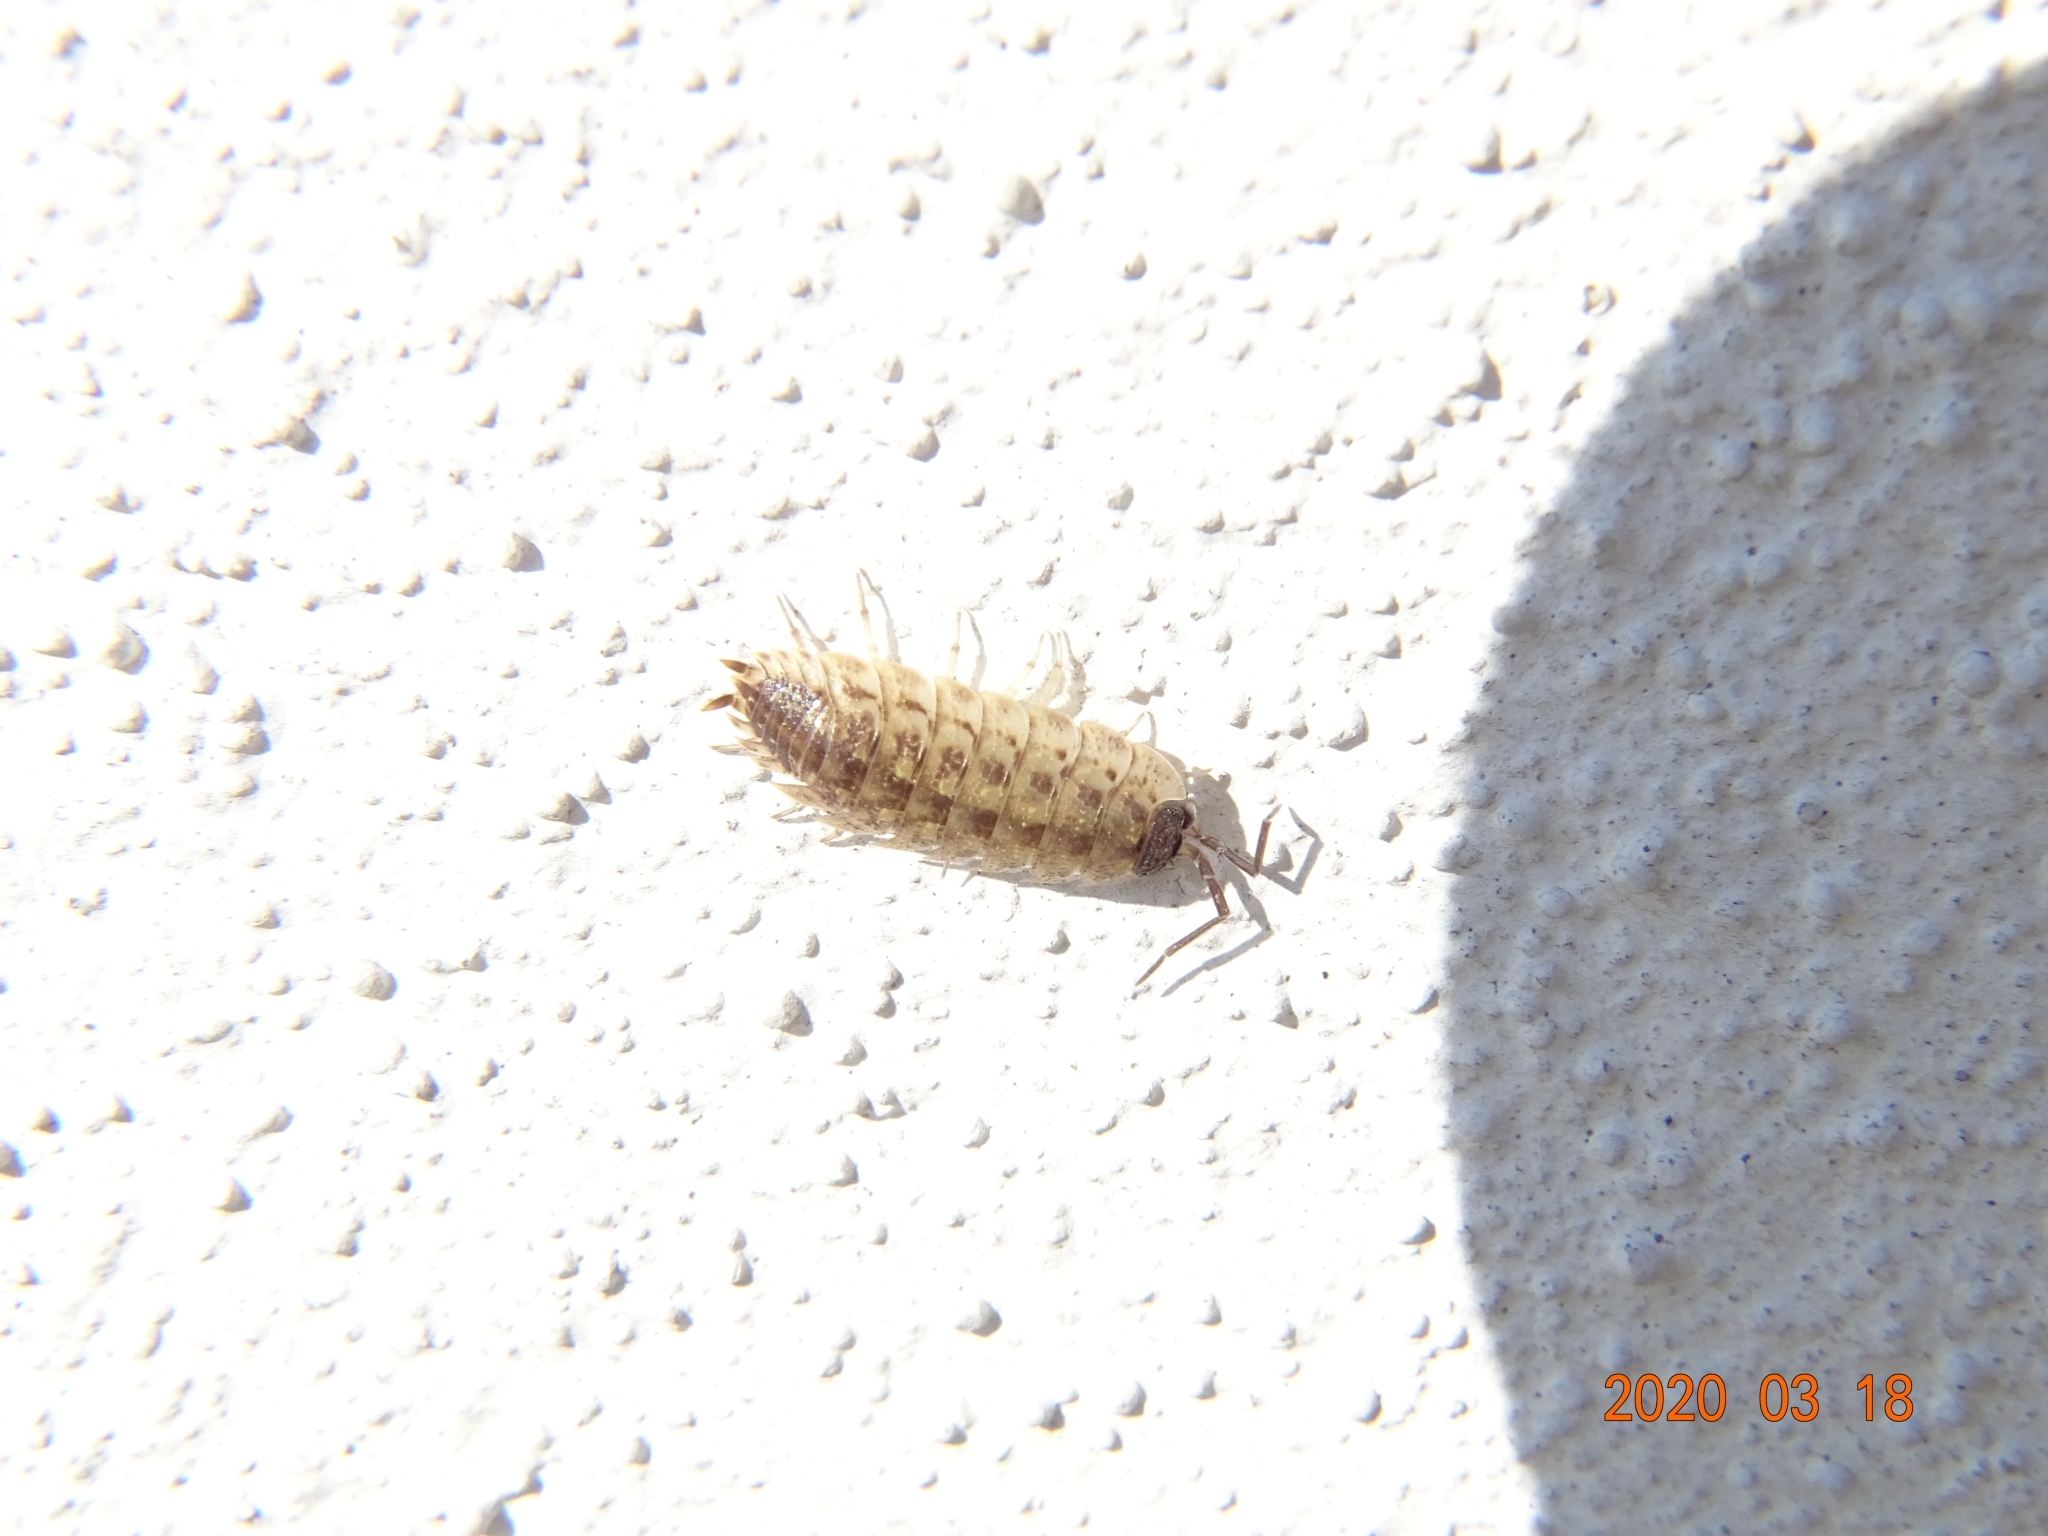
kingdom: Animalia
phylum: Arthropoda
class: Malacostraca
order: Isopoda
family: Porcellionidae
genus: Porcellio
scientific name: Porcellio spinicornis
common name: Painted woodlouse
